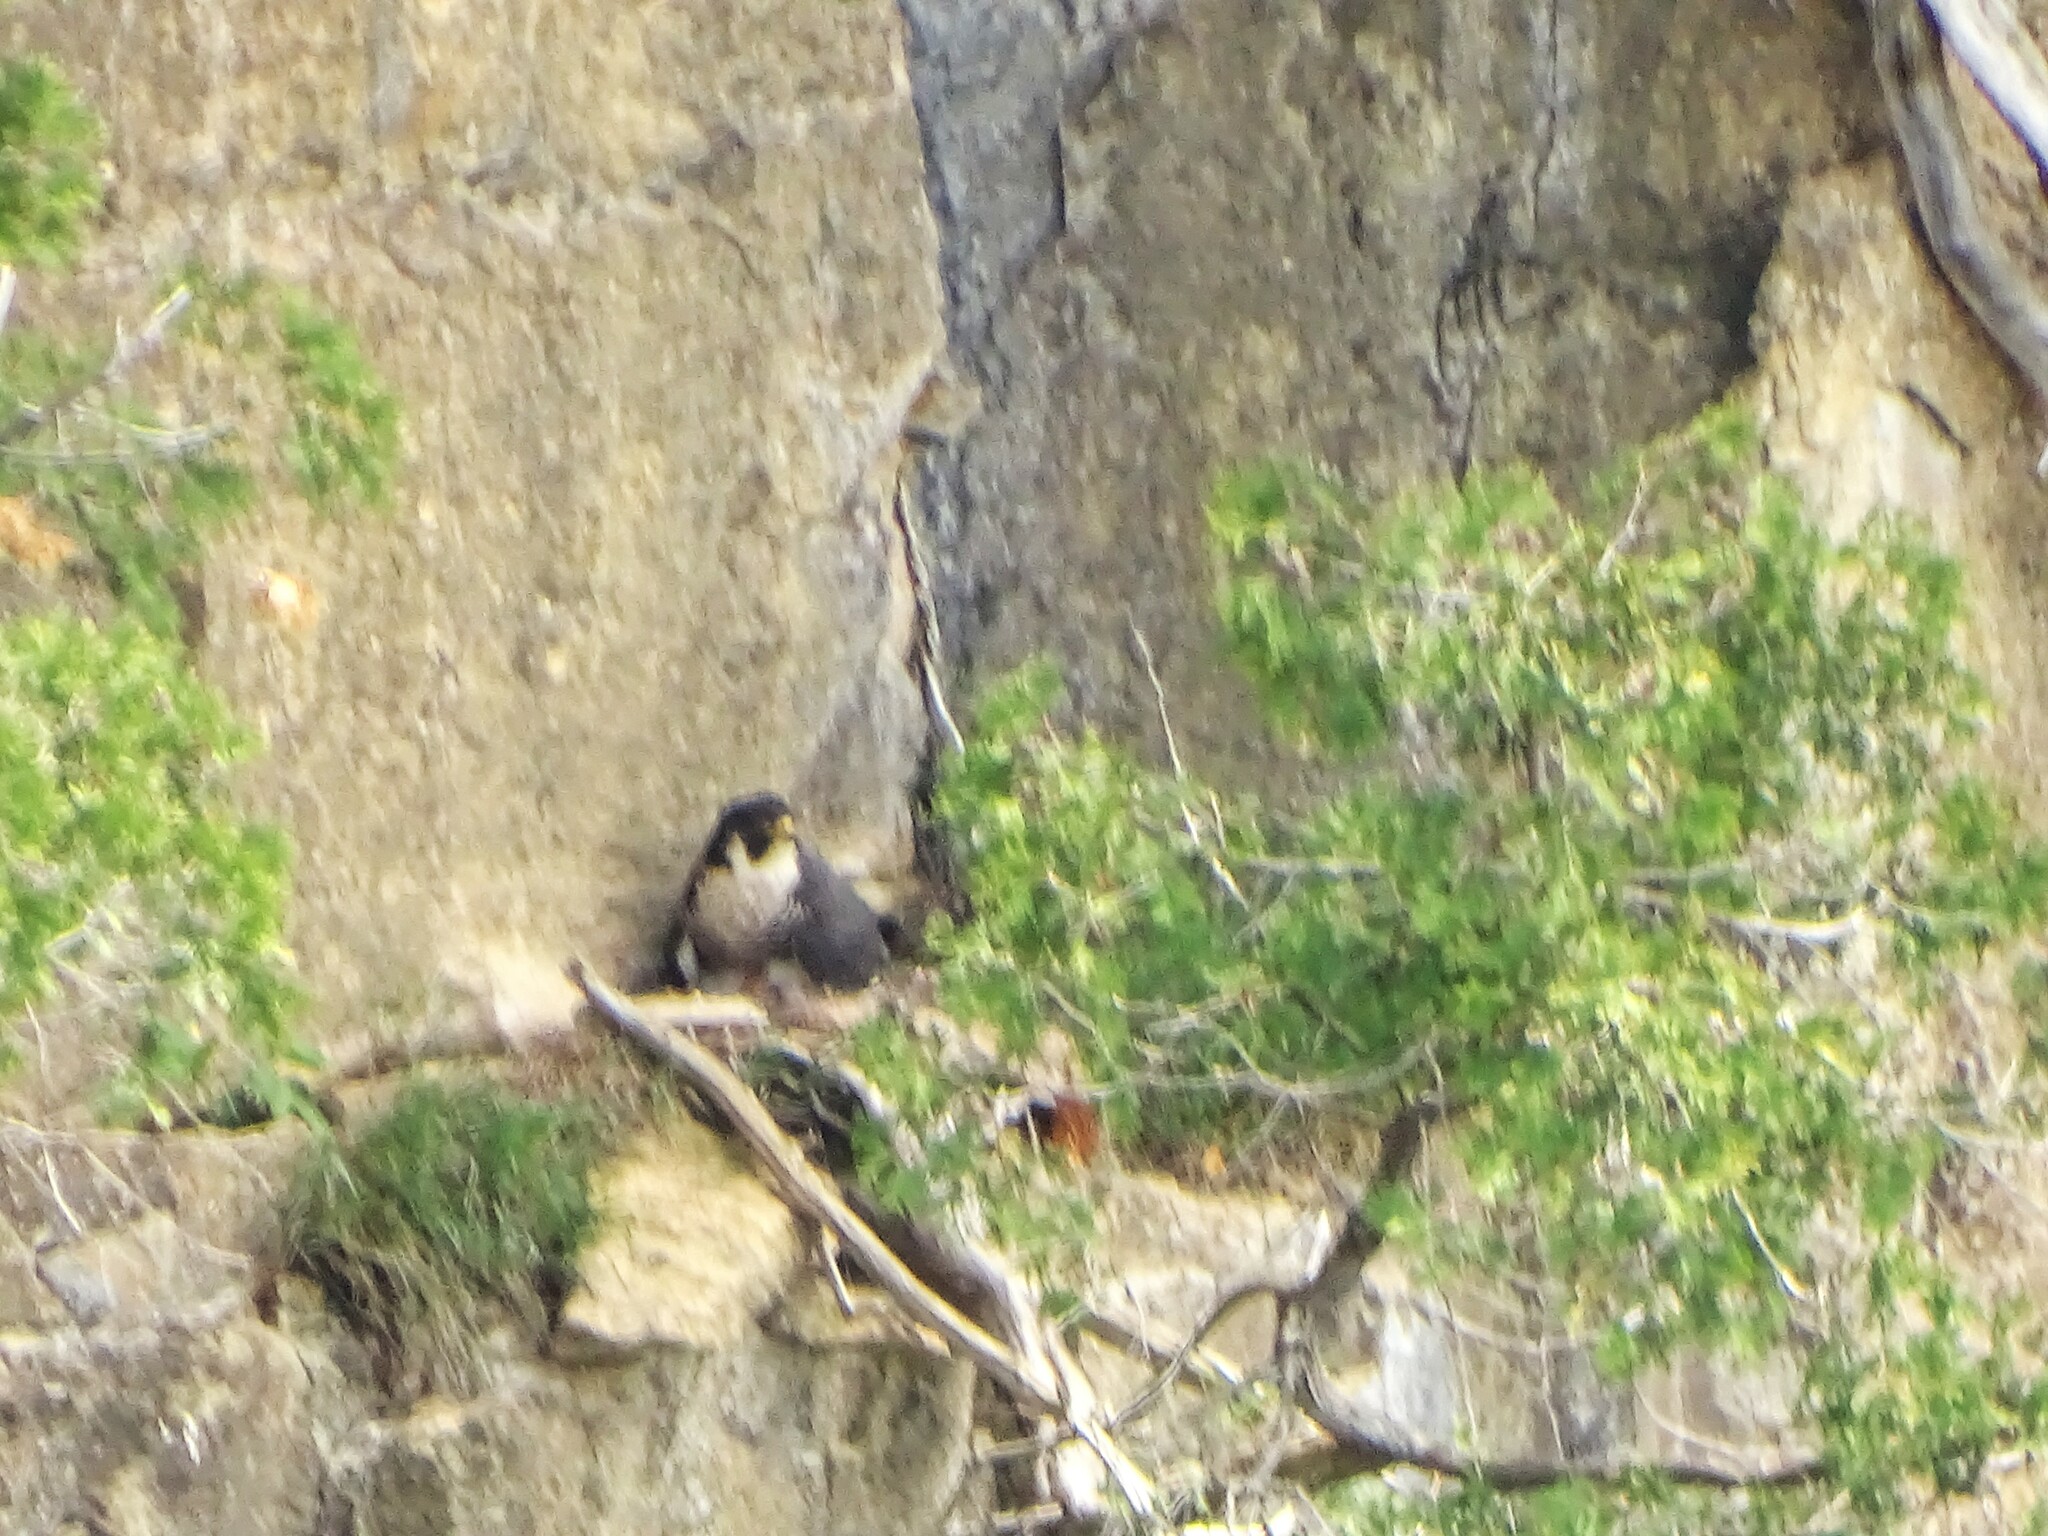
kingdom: Animalia
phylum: Chordata
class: Aves
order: Falconiformes
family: Falconidae
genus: Falco
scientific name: Falco peregrinus
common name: Peregrine falcon
